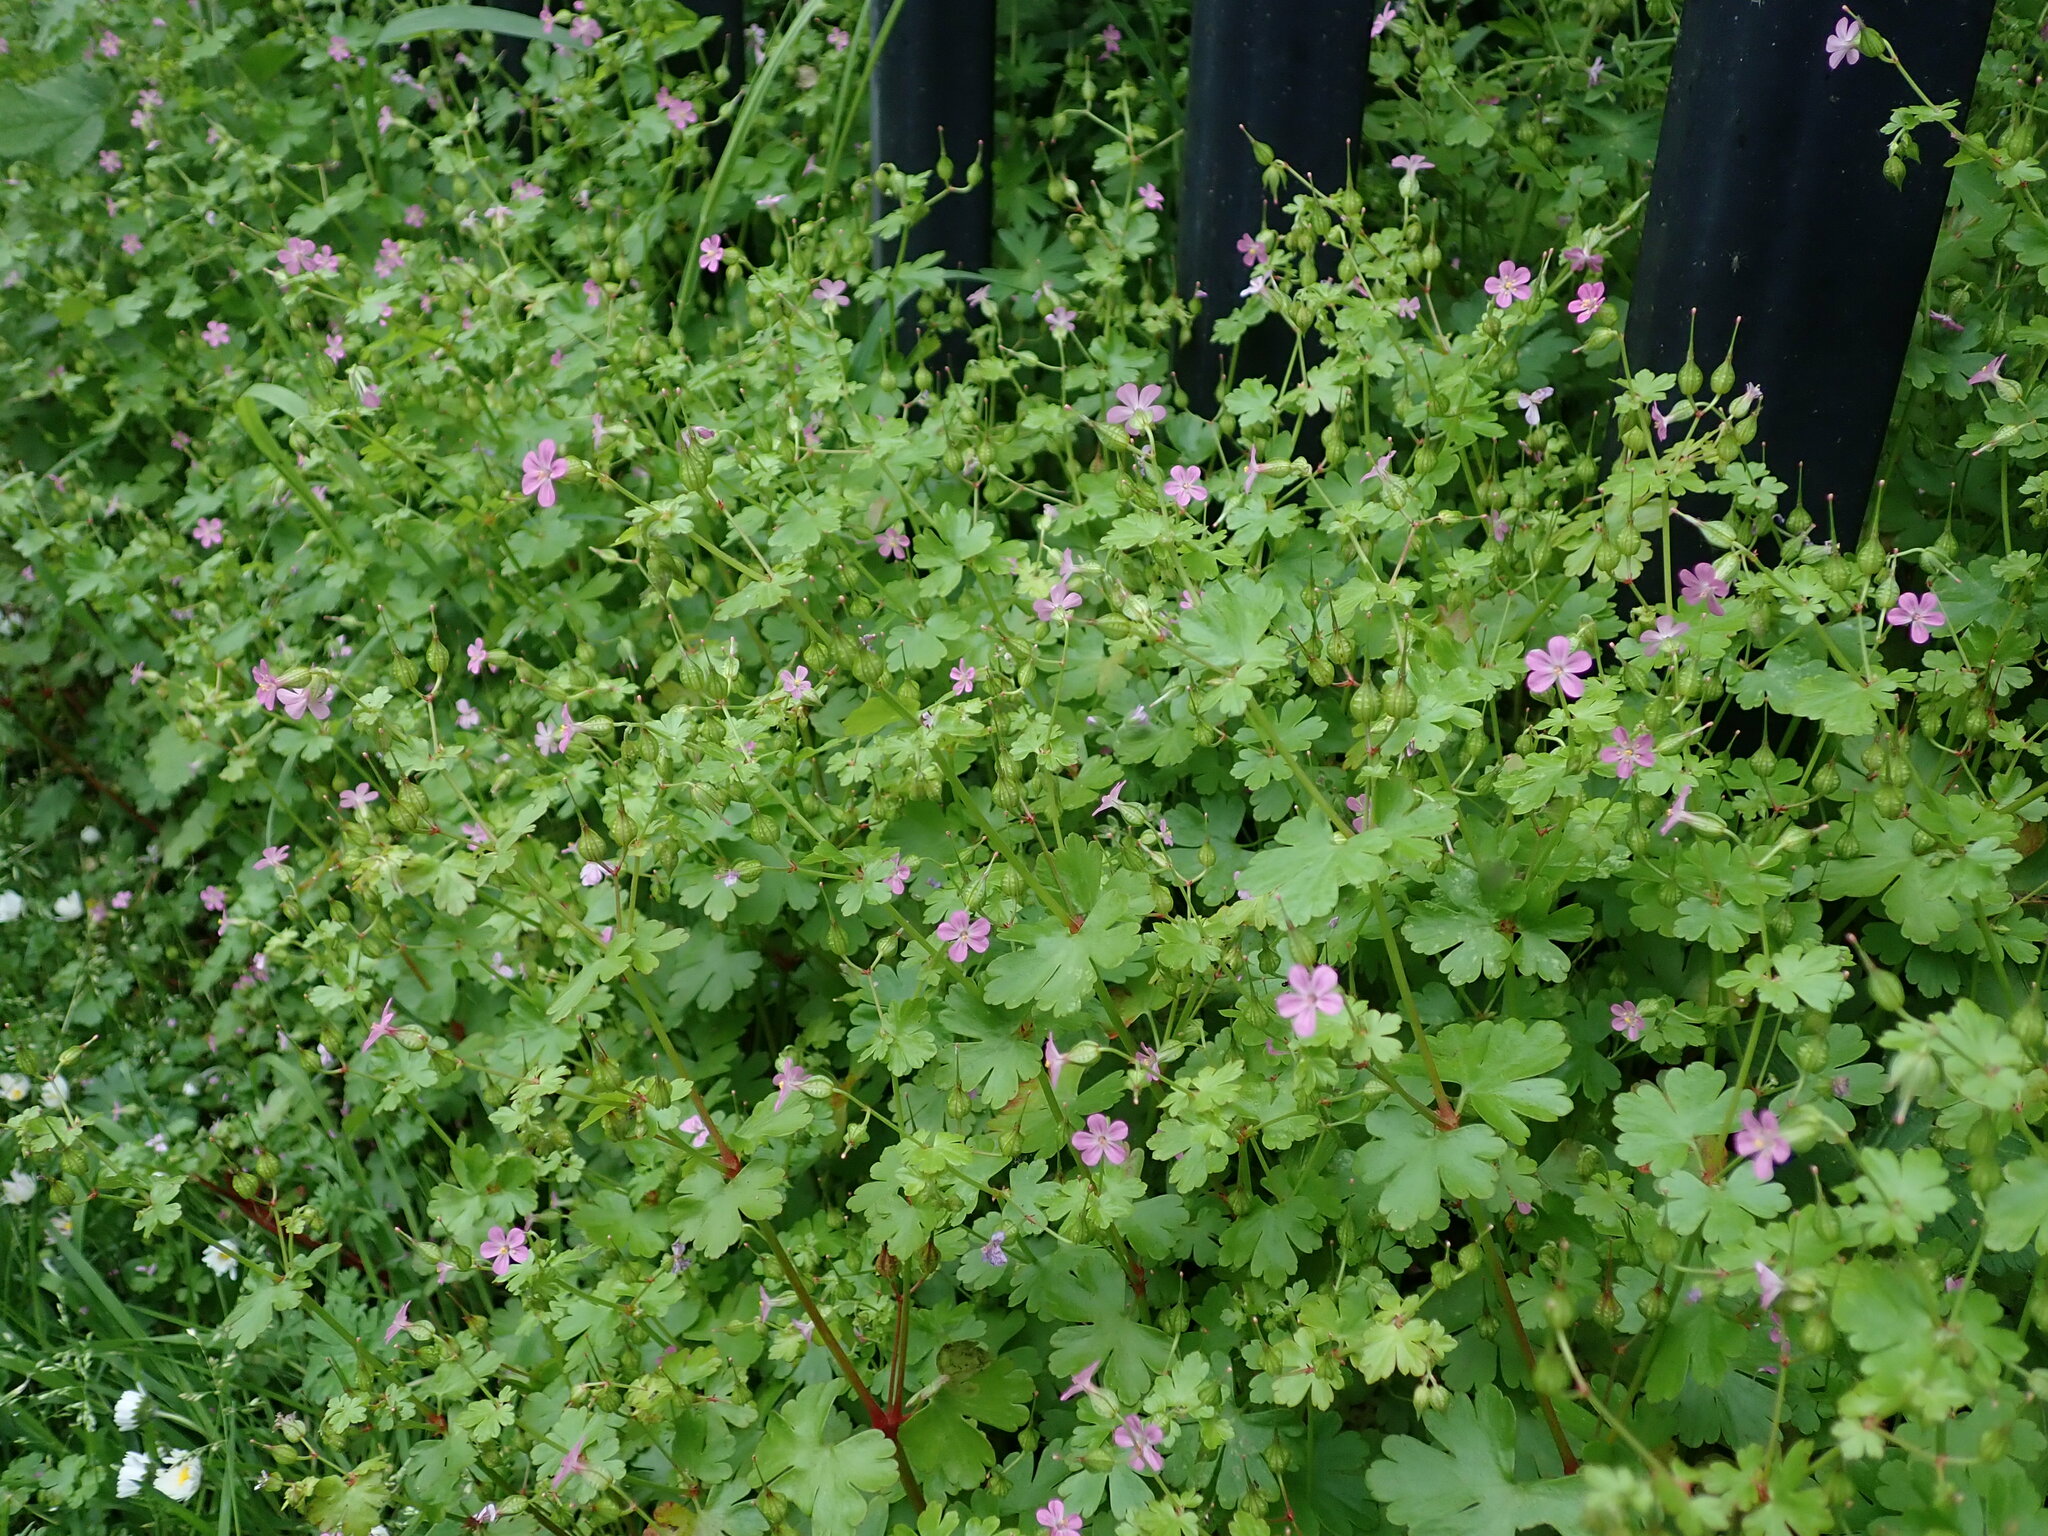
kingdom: Plantae
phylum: Tracheophyta
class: Magnoliopsida
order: Geraniales
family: Geraniaceae
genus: Geranium
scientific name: Geranium lucidum
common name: Shining crane's-bill
